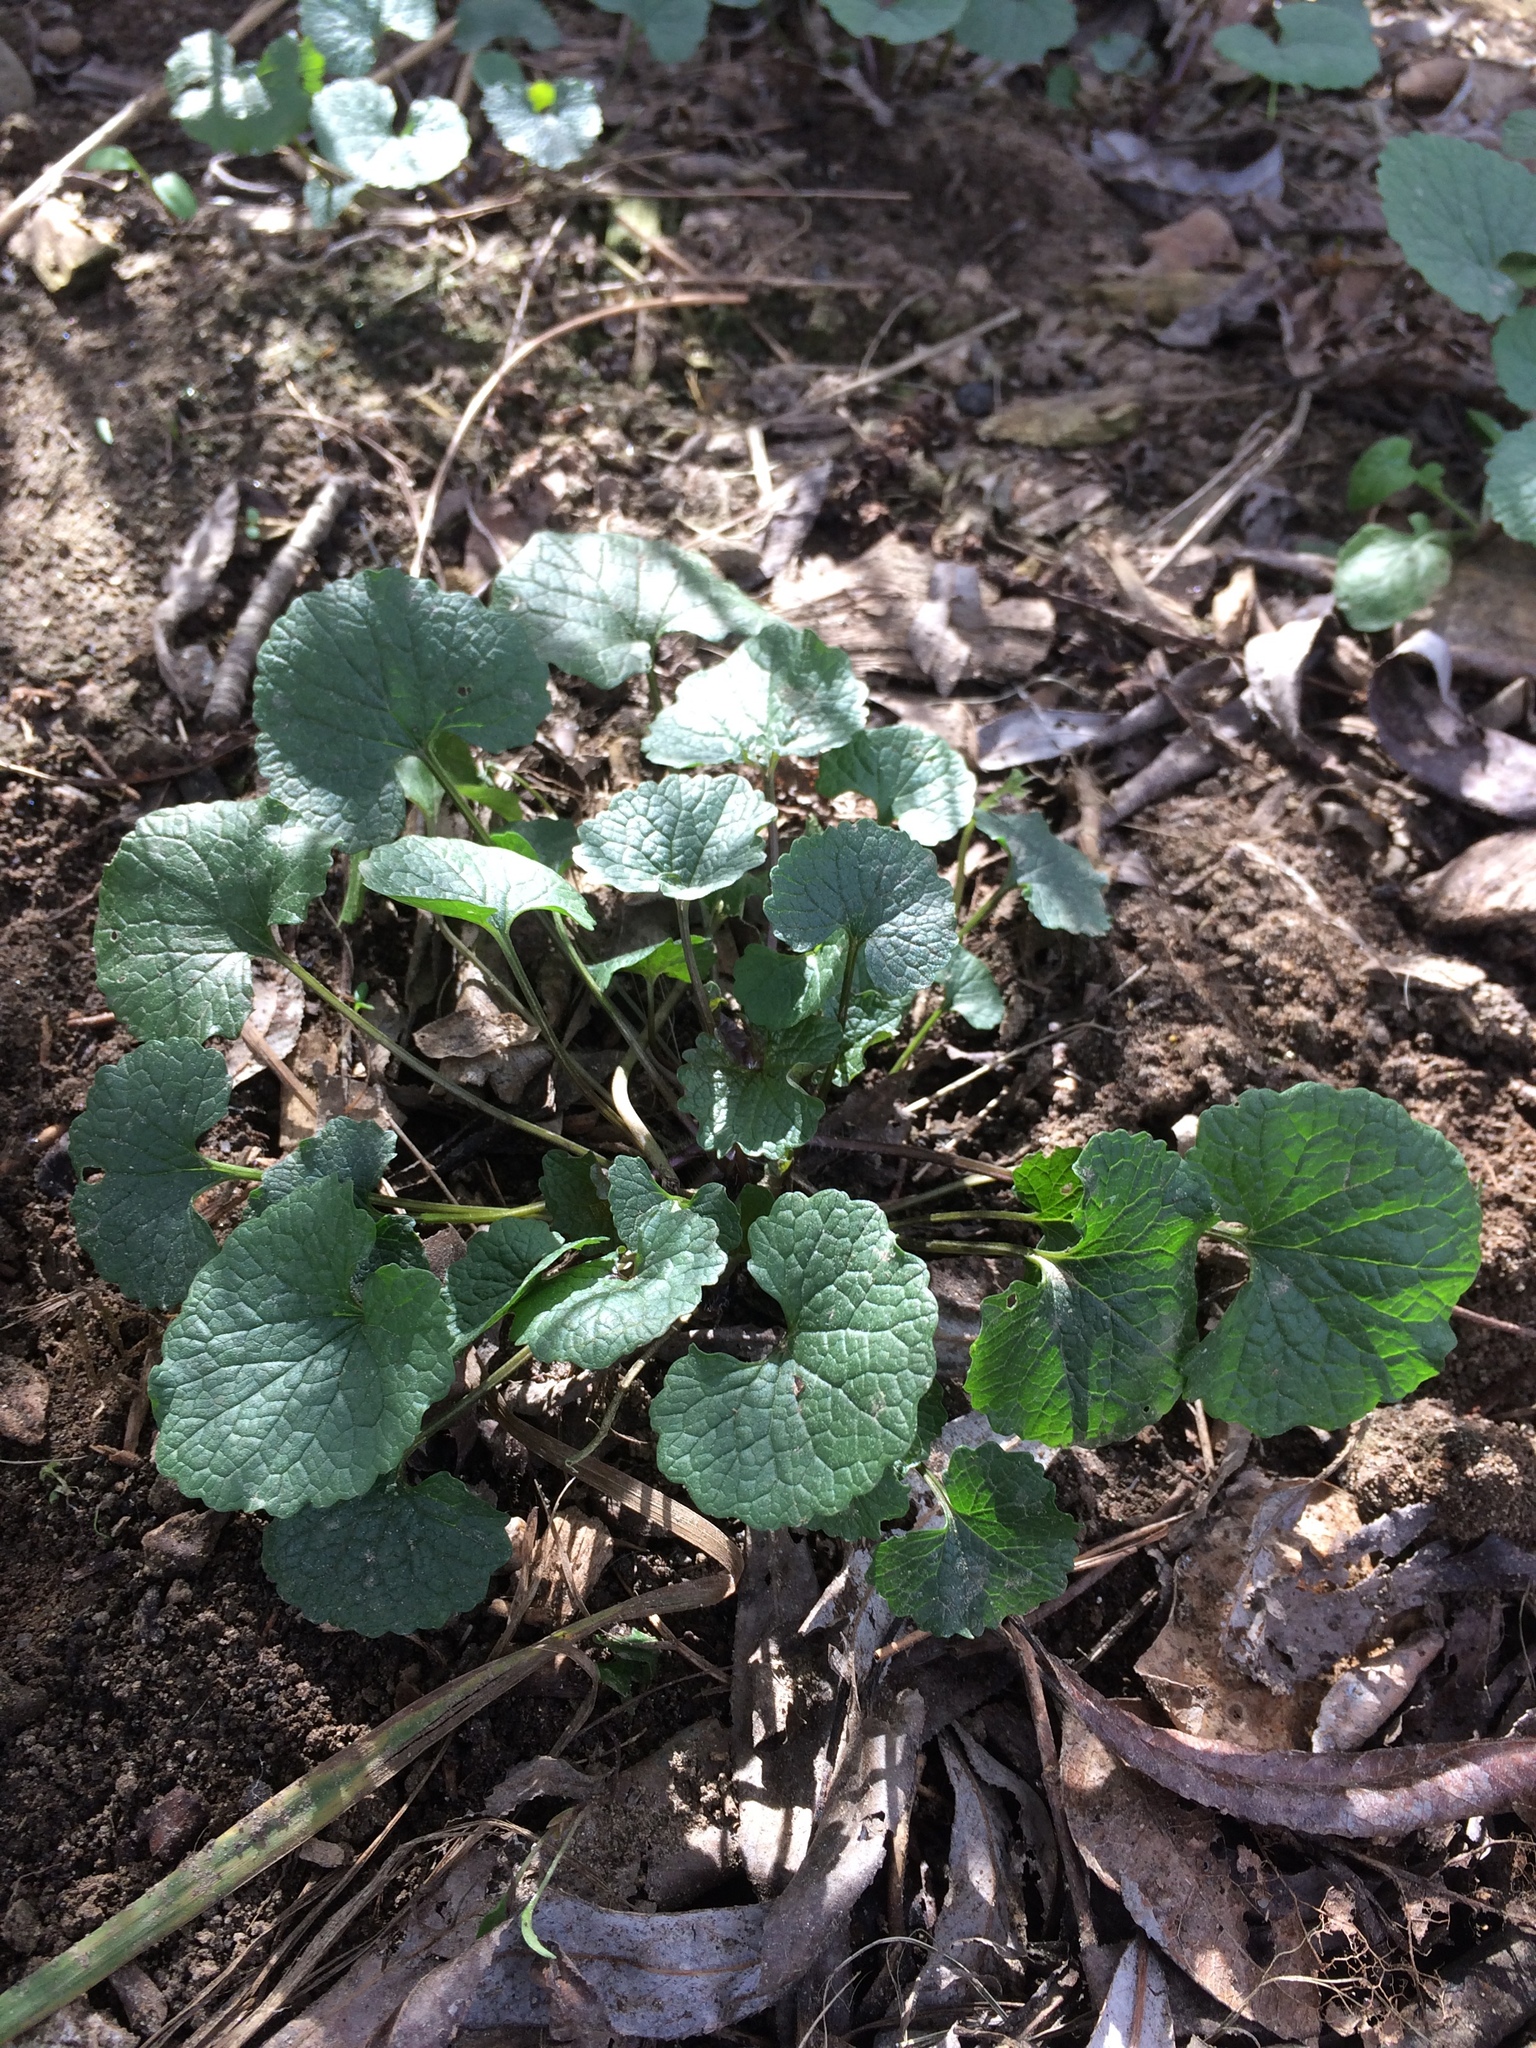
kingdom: Plantae
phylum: Tracheophyta
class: Magnoliopsida
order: Brassicales
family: Brassicaceae
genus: Alliaria
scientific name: Alliaria petiolata
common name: Garlic mustard
